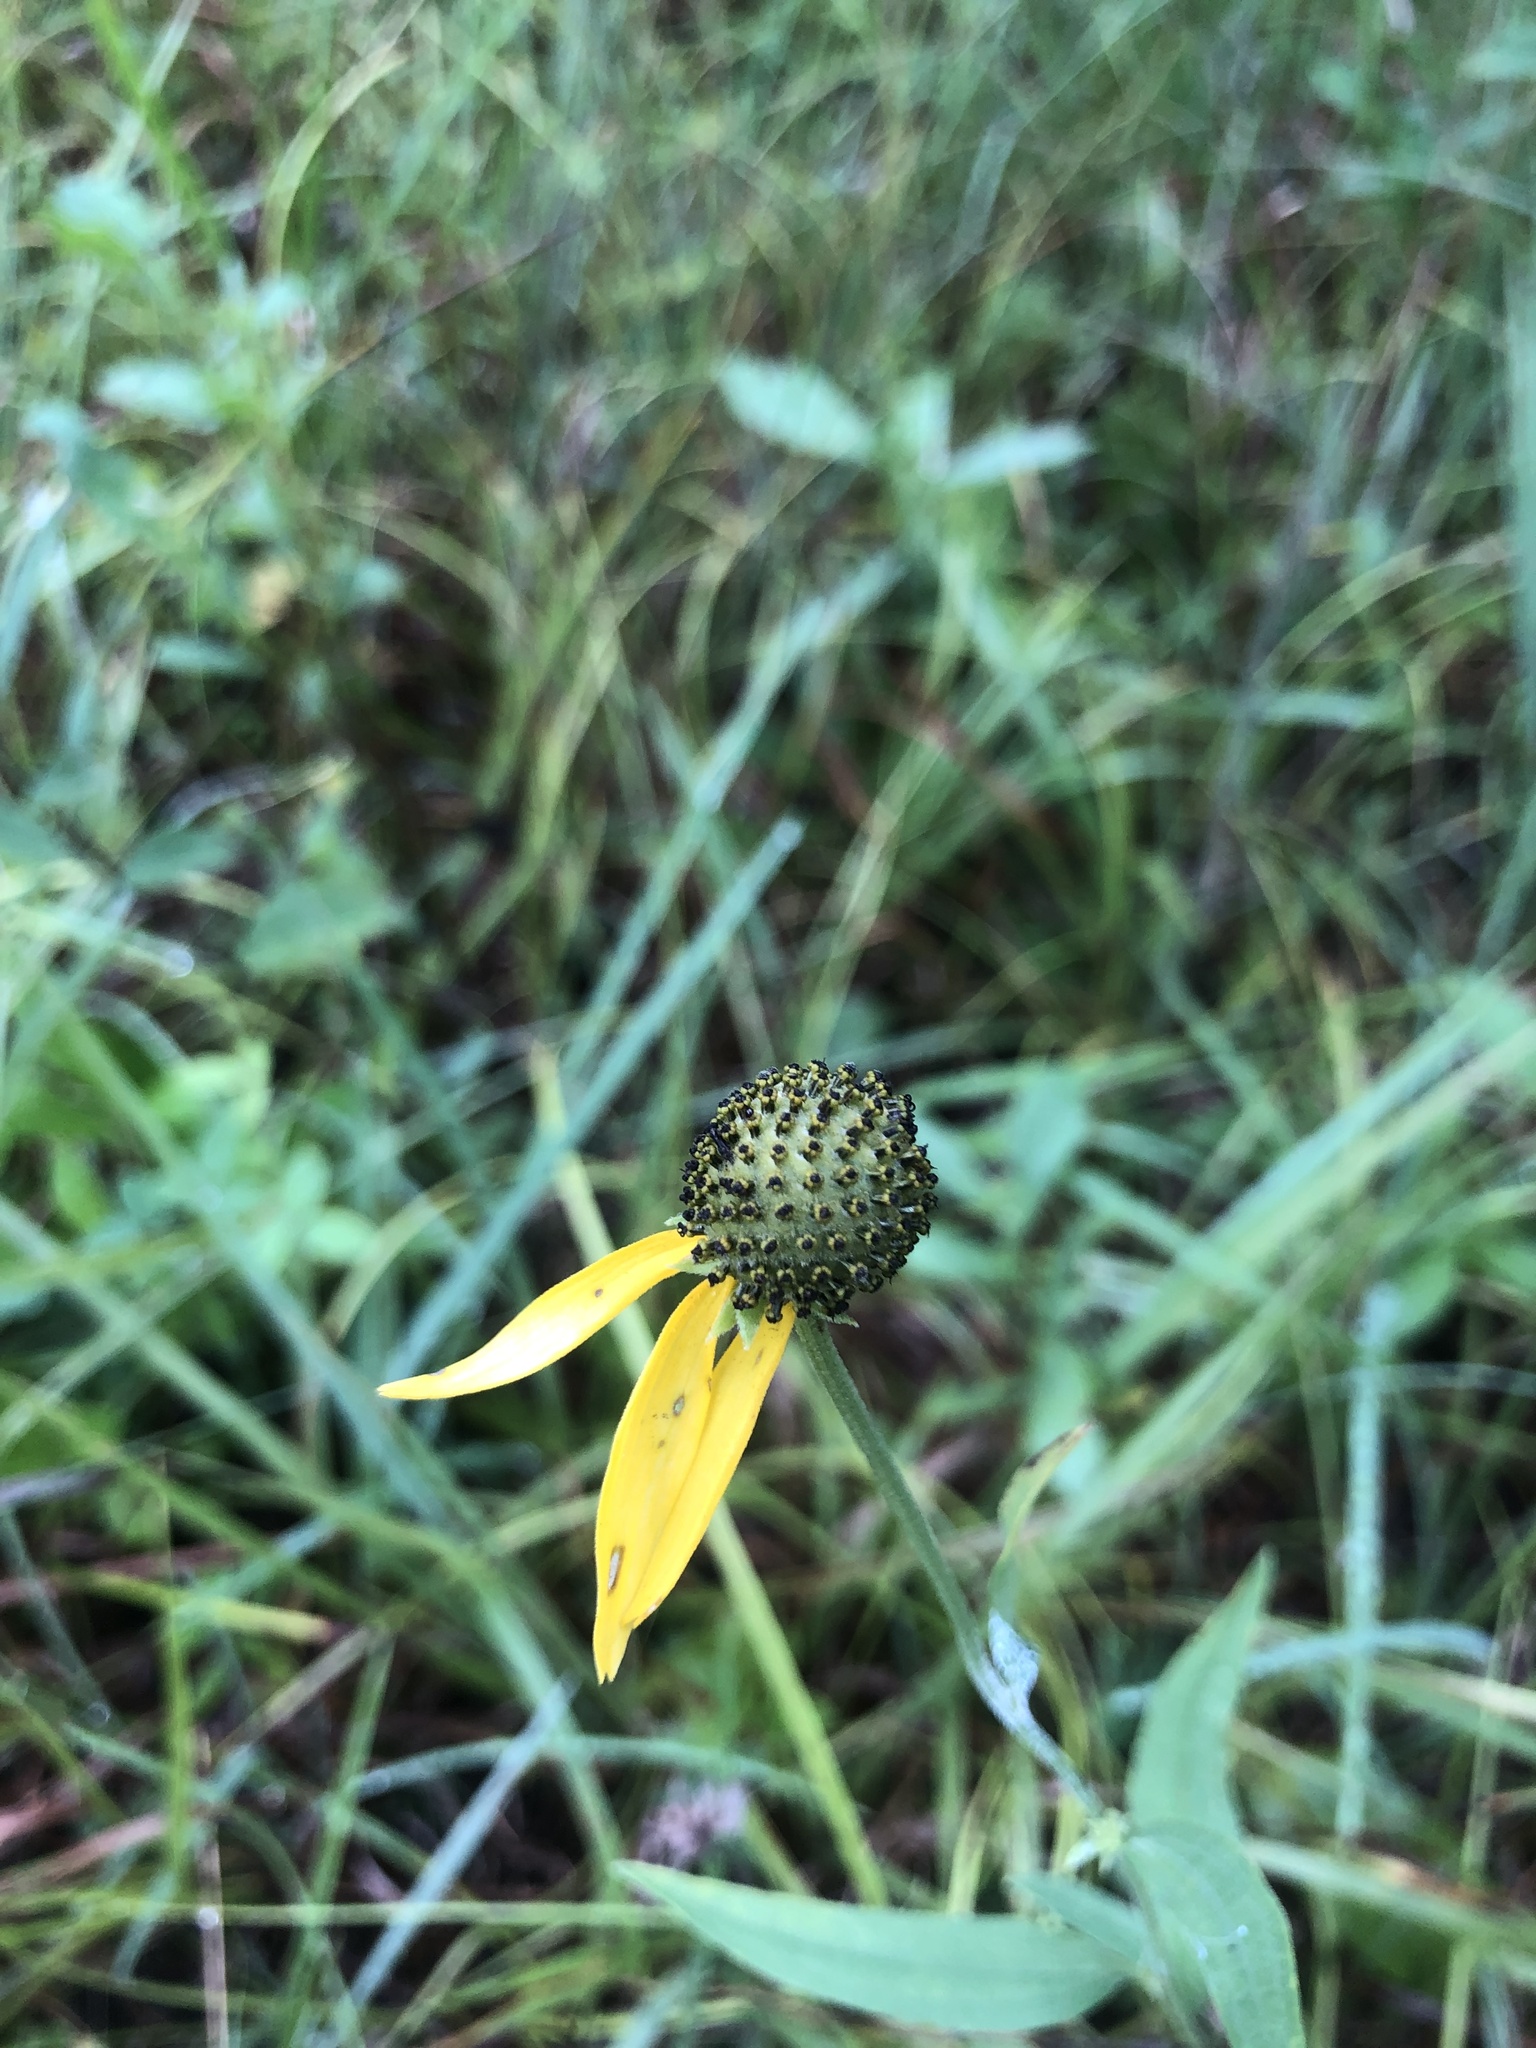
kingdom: Plantae
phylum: Tracheophyta
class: Magnoliopsida
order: Asterales
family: Asteraceae
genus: Ratibida
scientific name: Ratibida pinnata
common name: Drooping prairie-coneflower
